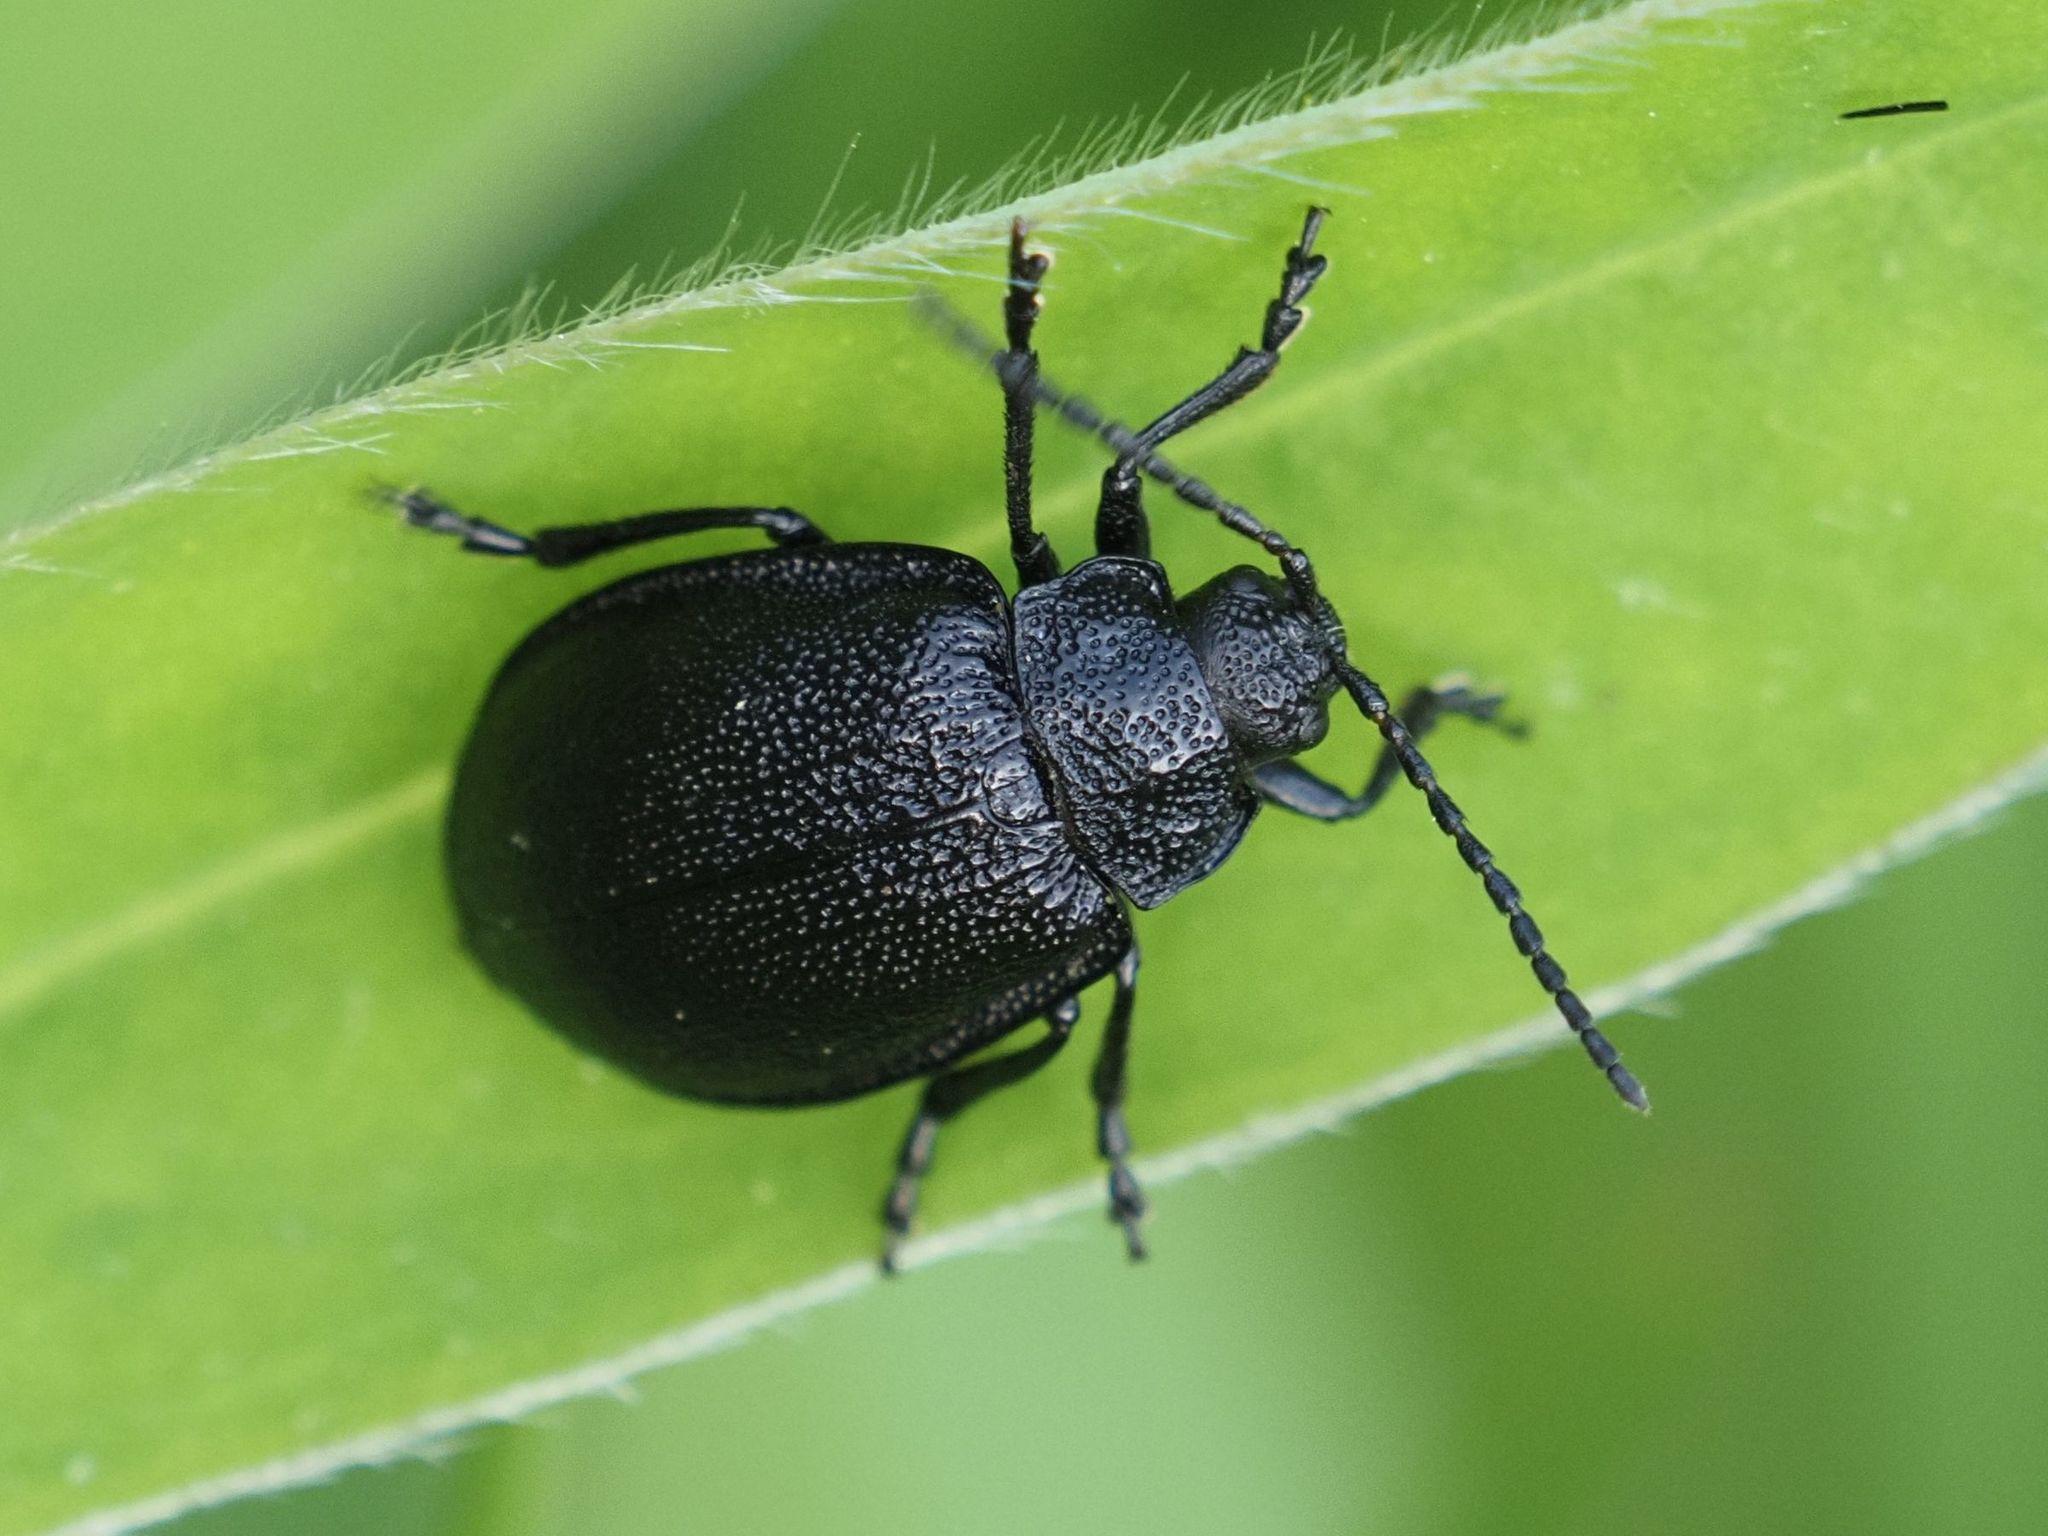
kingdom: Animalia
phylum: Arthropoda
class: Insecta
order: Coleoptera
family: Chrysomelidae
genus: Galeruca
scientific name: Galeruca tanaceti
